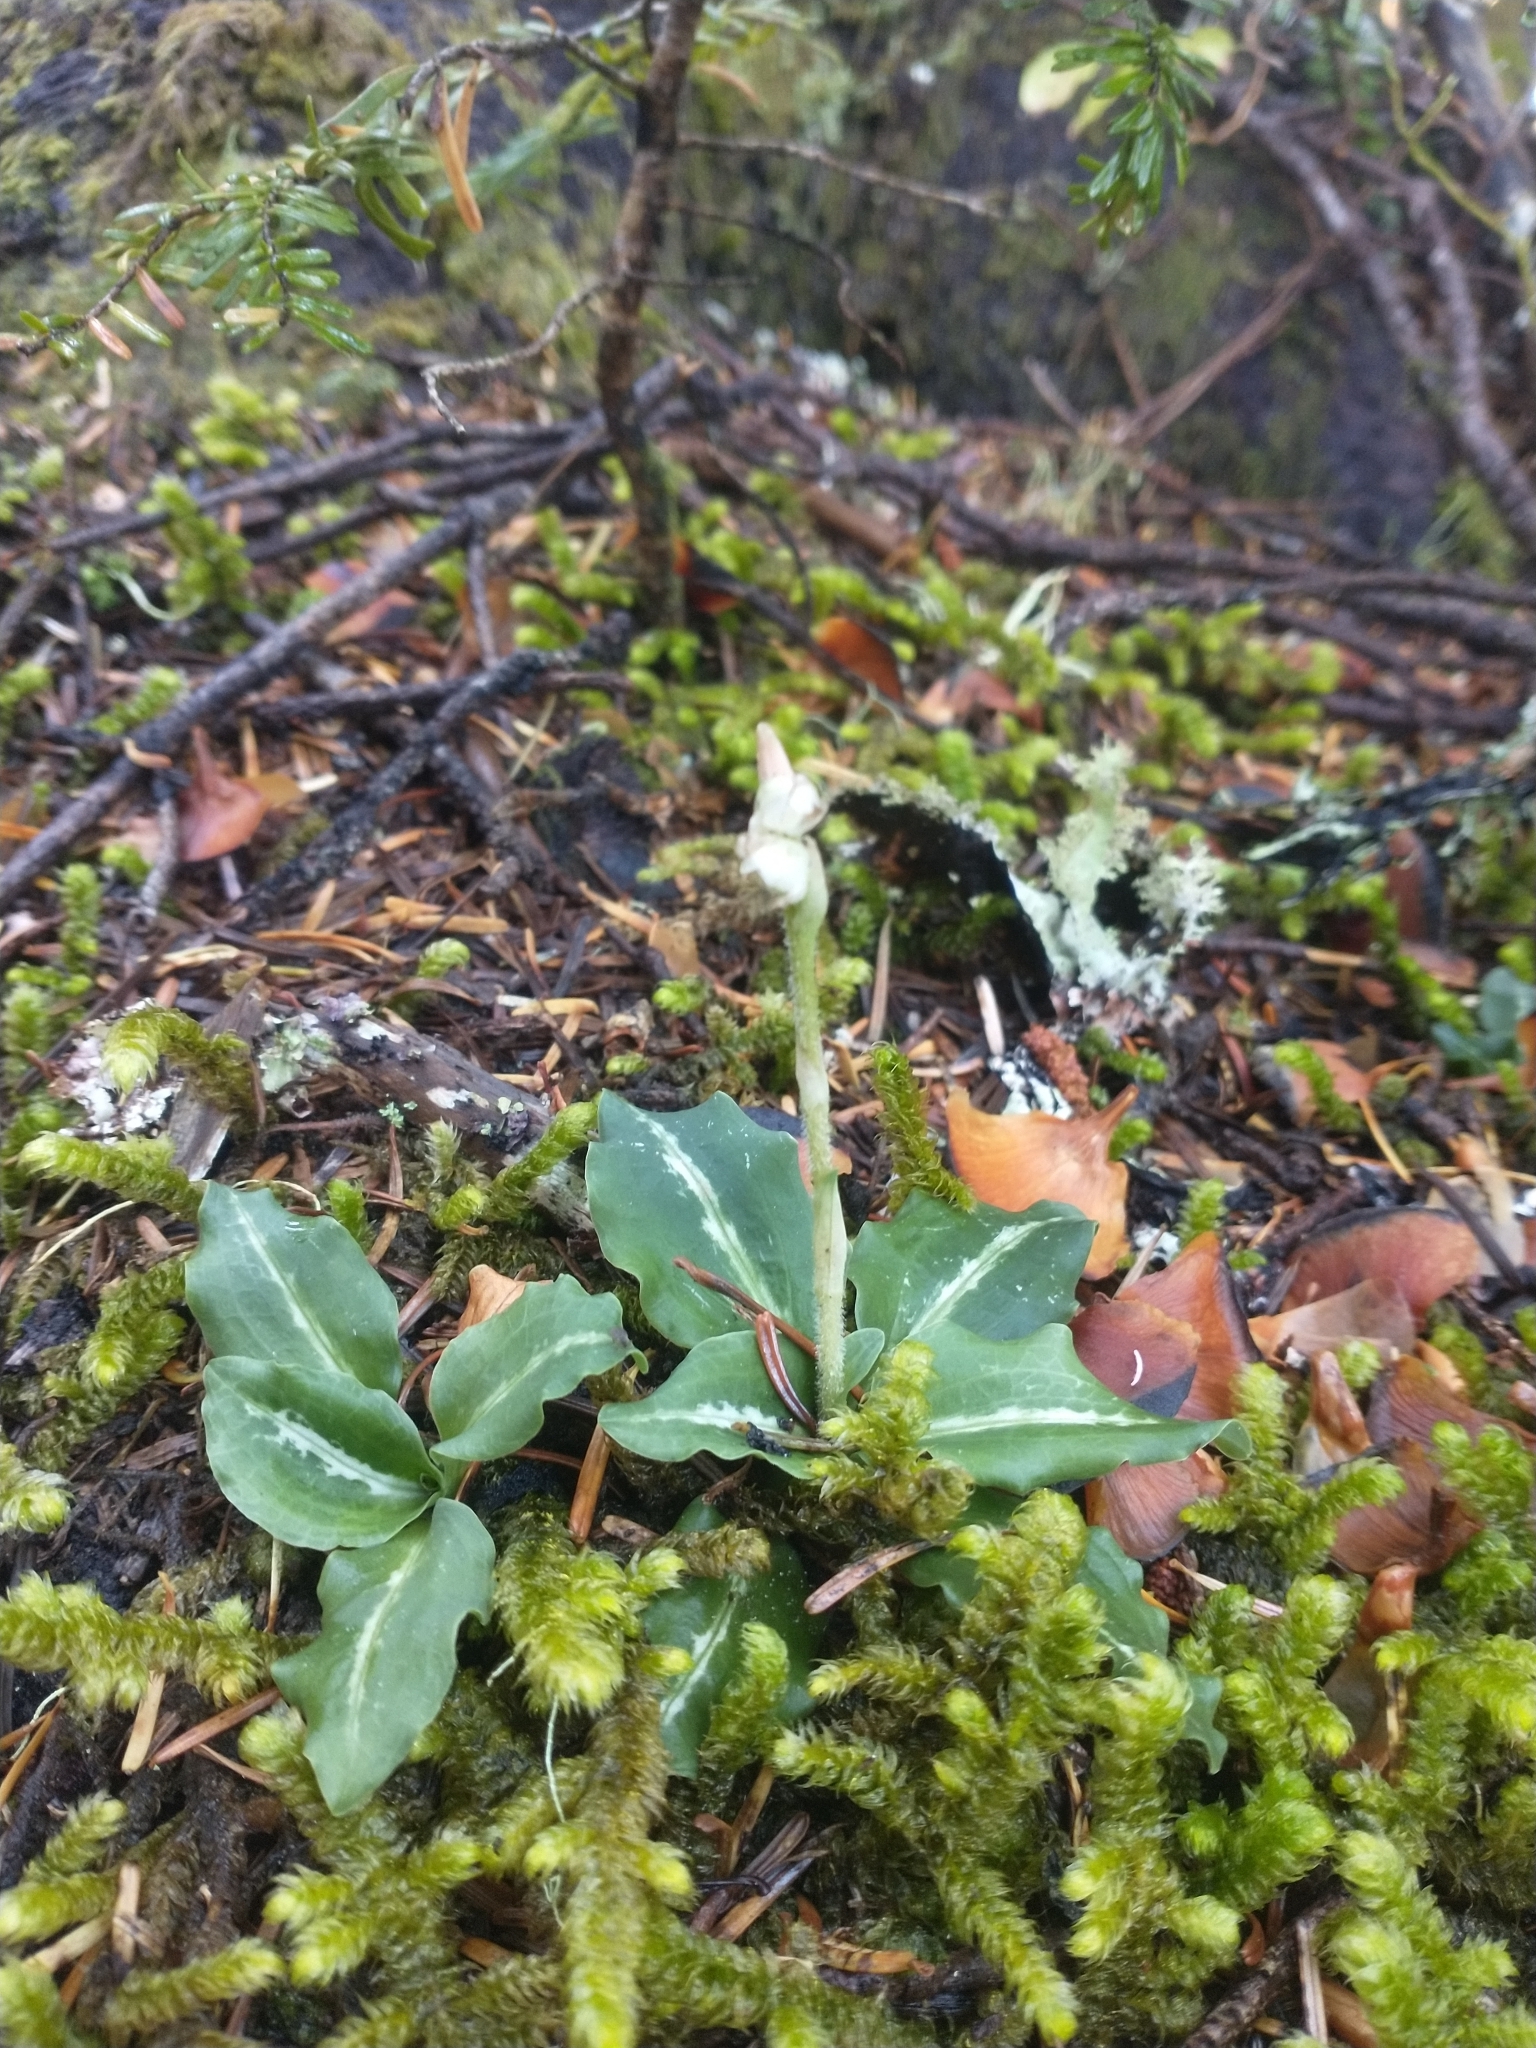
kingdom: Plantae
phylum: Tracheophyta
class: Liliopsida
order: Asparagales
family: Orchidaceae
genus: Goodyera
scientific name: Goodyera oblongifolia
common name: Giant rattlesnake-plantain
